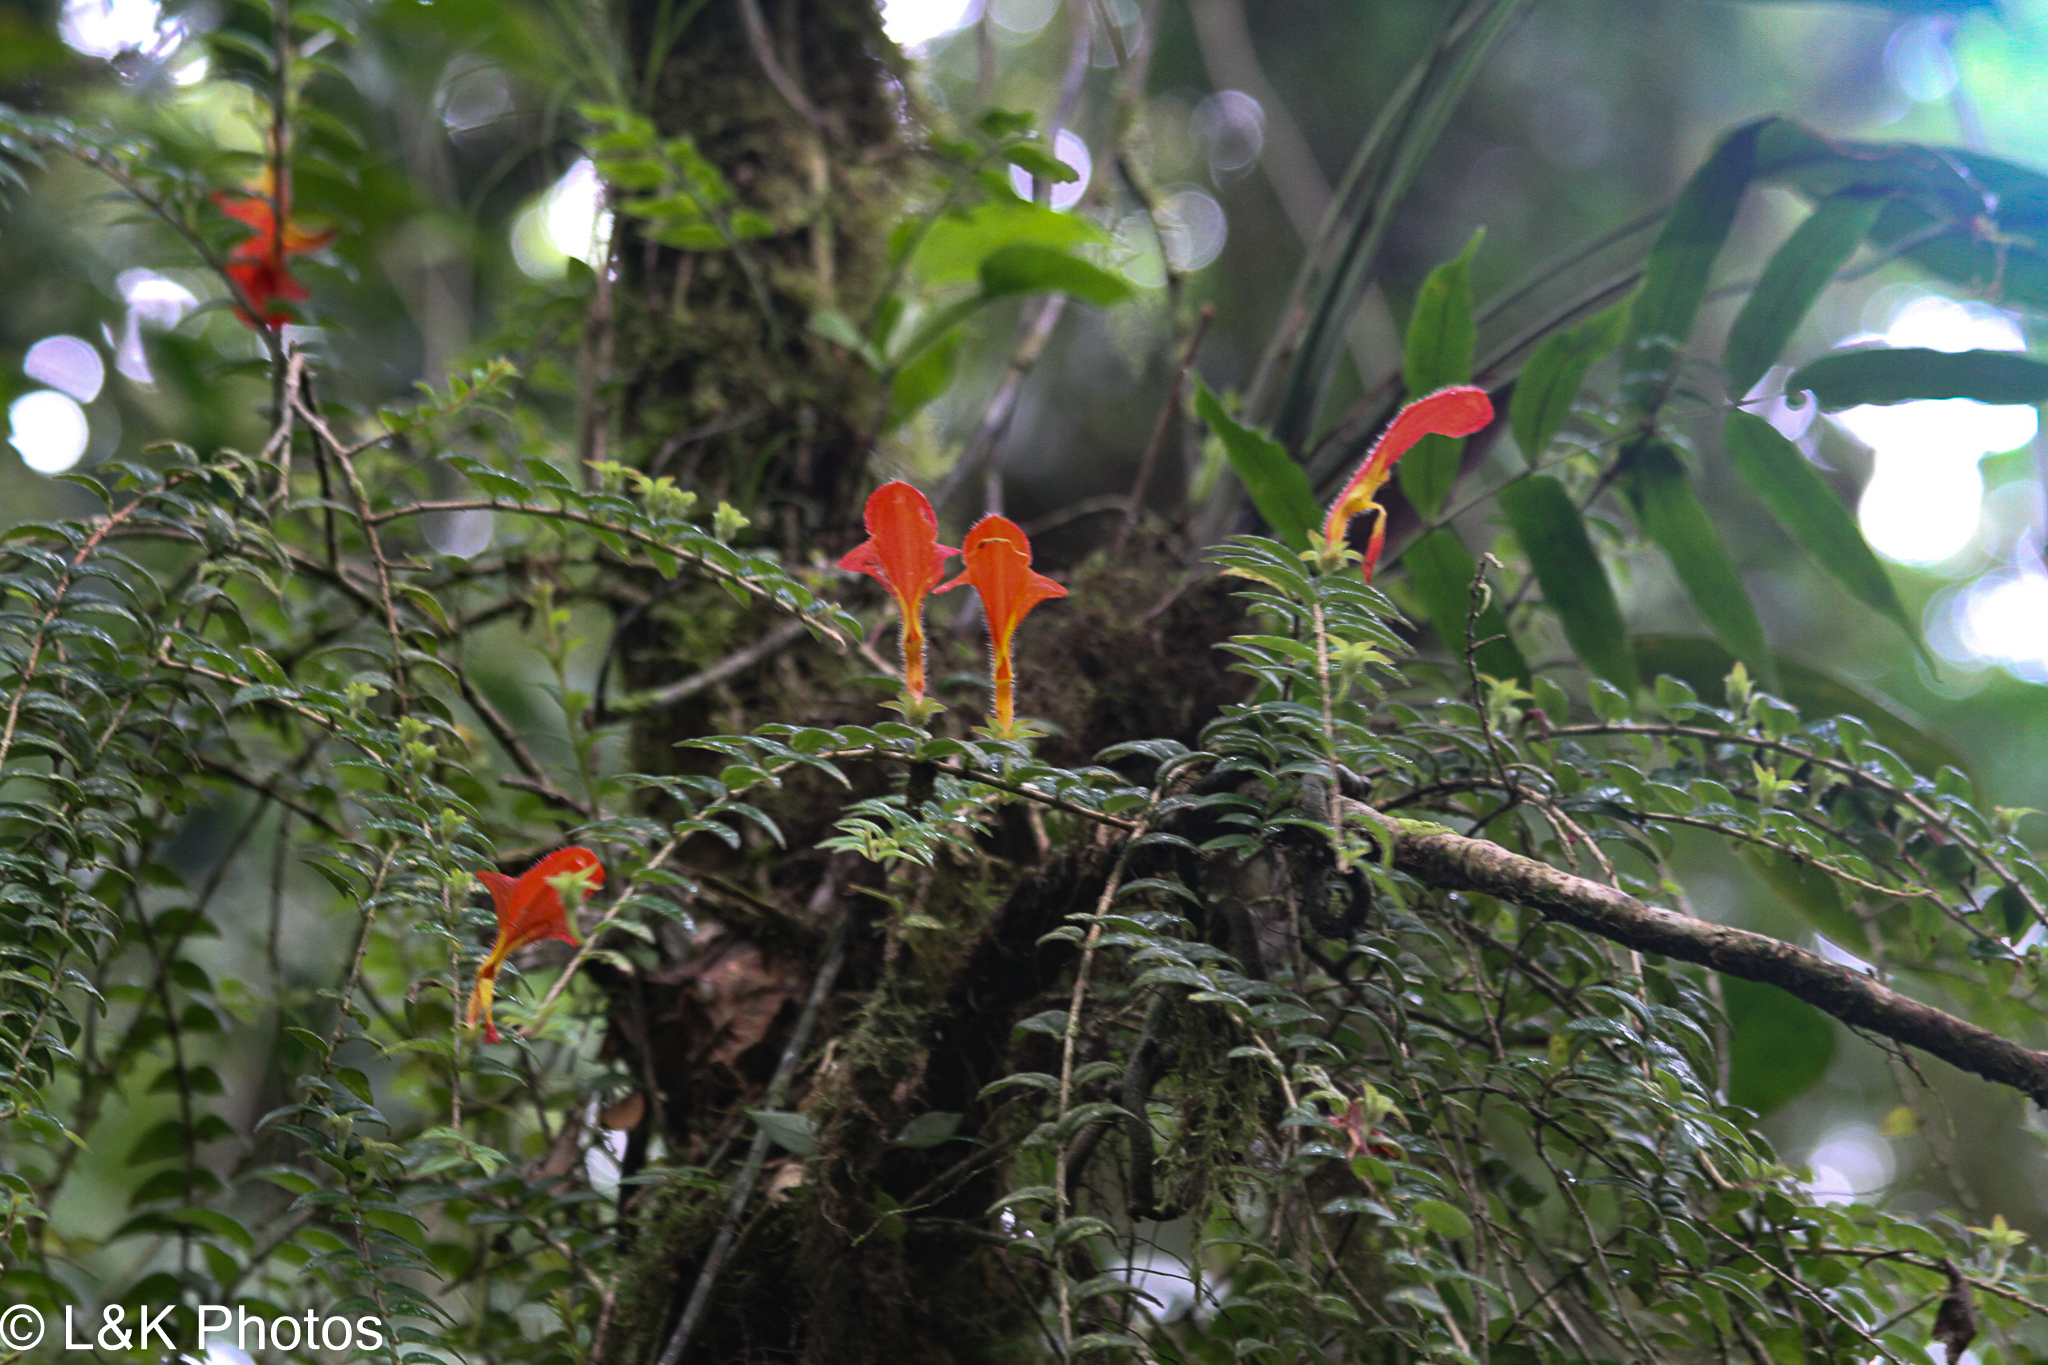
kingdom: Plantae
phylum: Tracheophyta
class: Magnoliopsida
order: Lamiales
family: Gesneriaceae
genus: Columnea
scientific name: Columnea microcalyx
